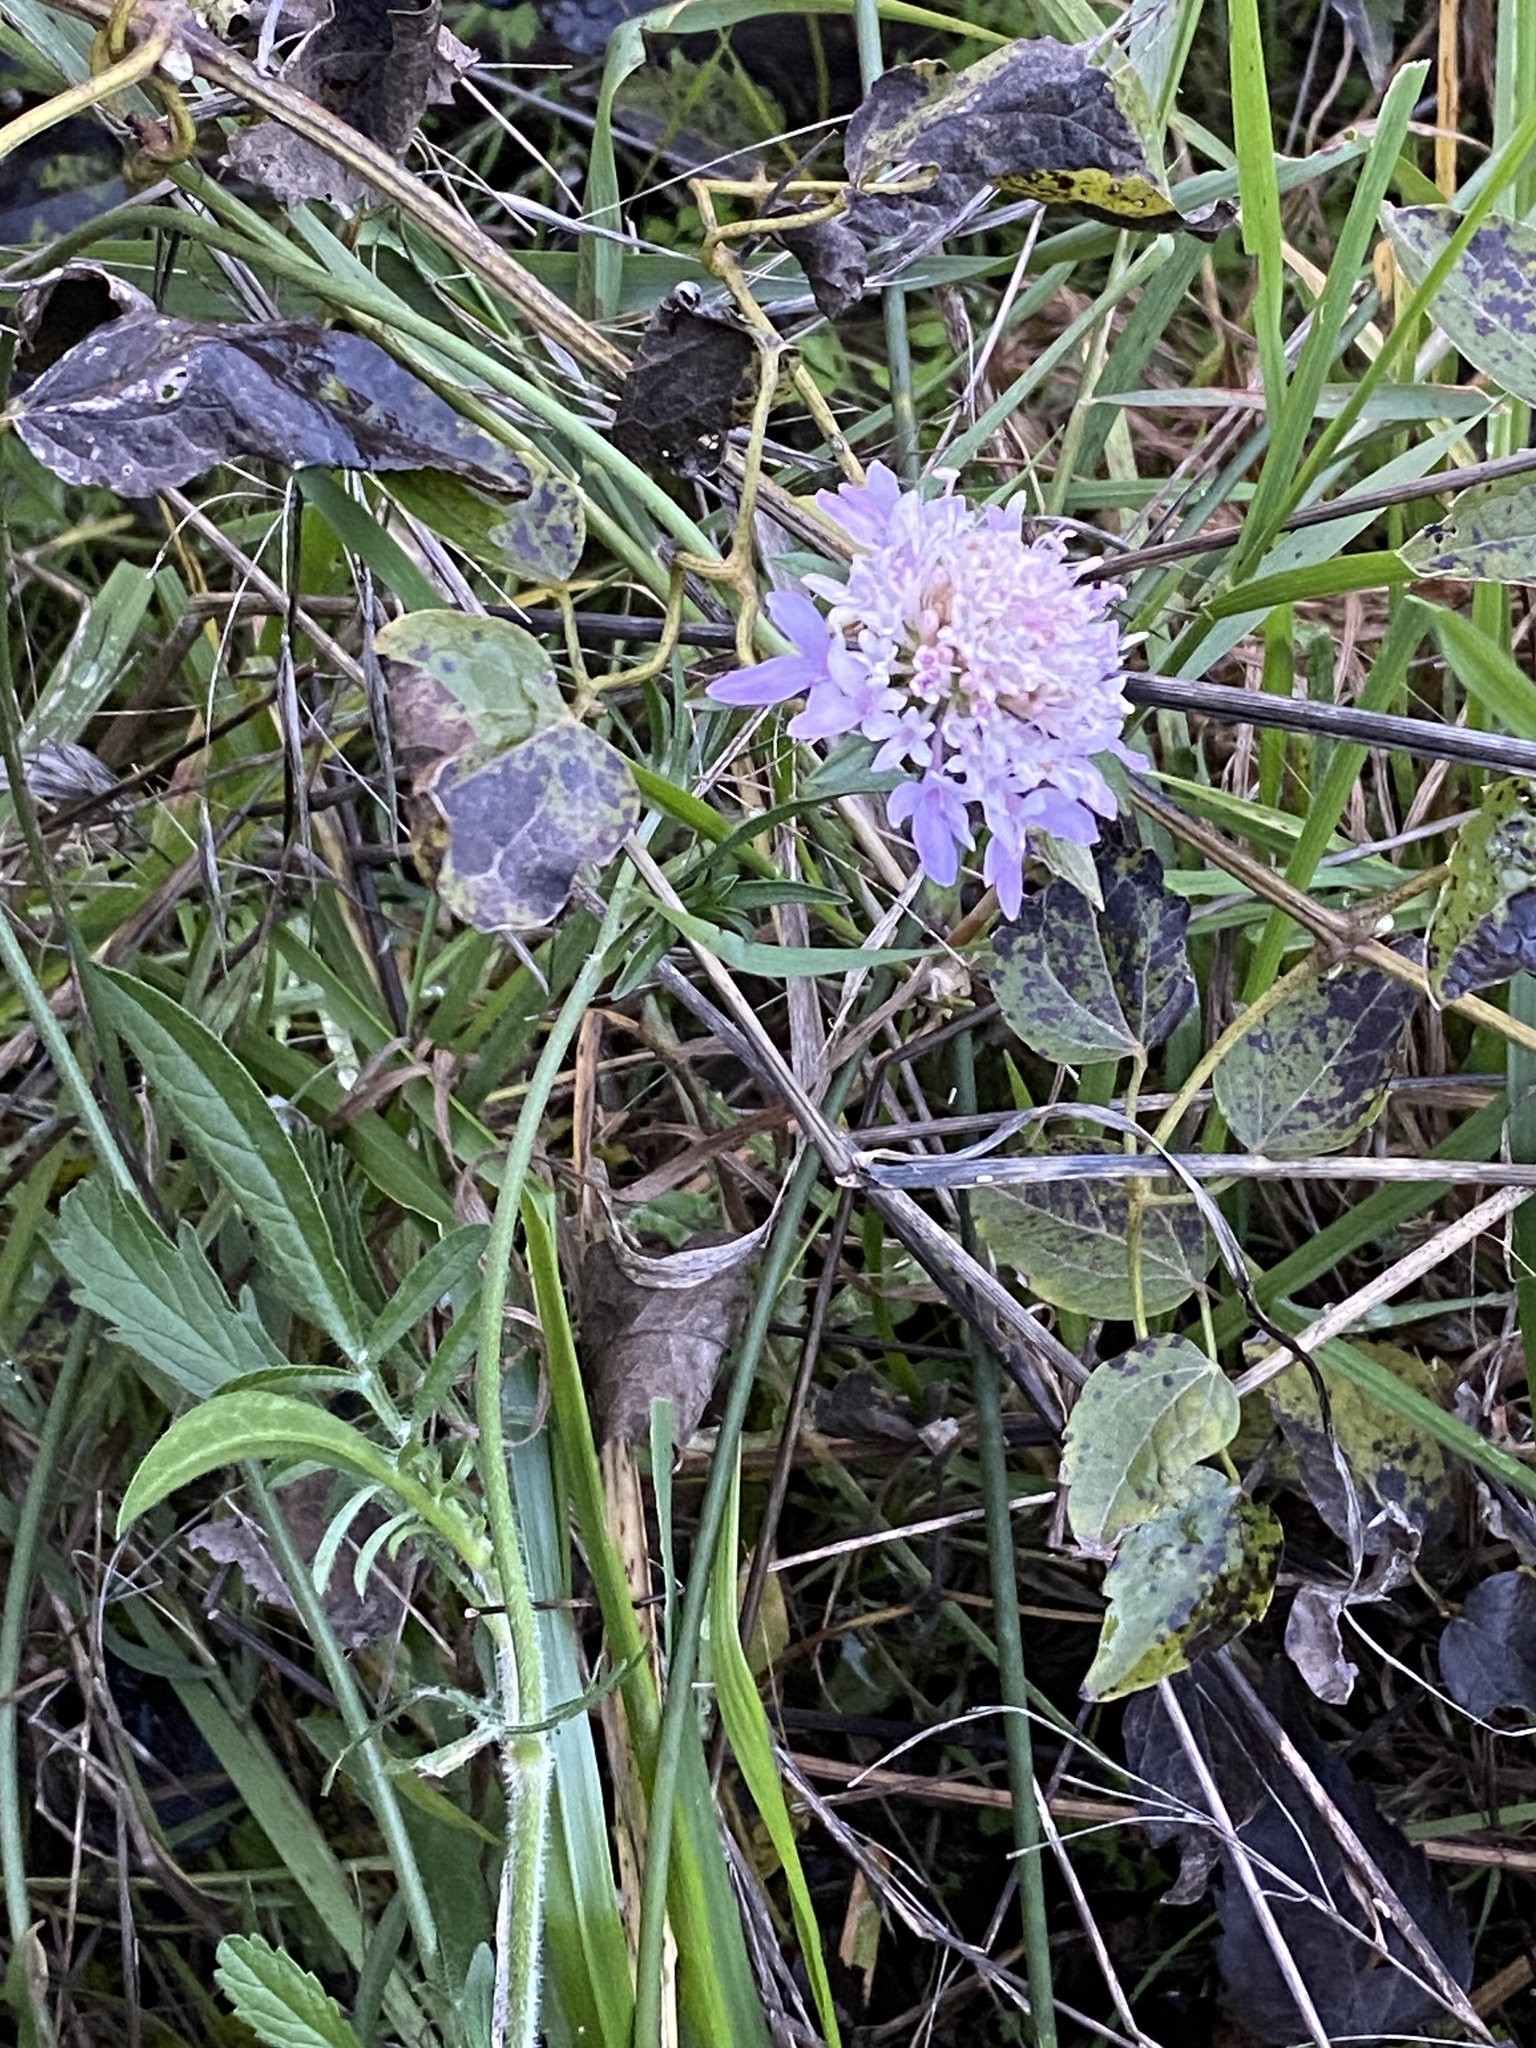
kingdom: Plantae
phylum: Tracheophyta
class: Magnoliopsida
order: Dipsacales
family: Caprifoliaceae
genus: Sixalix
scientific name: Sixalix atropurpurea
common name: Sweet scabious
